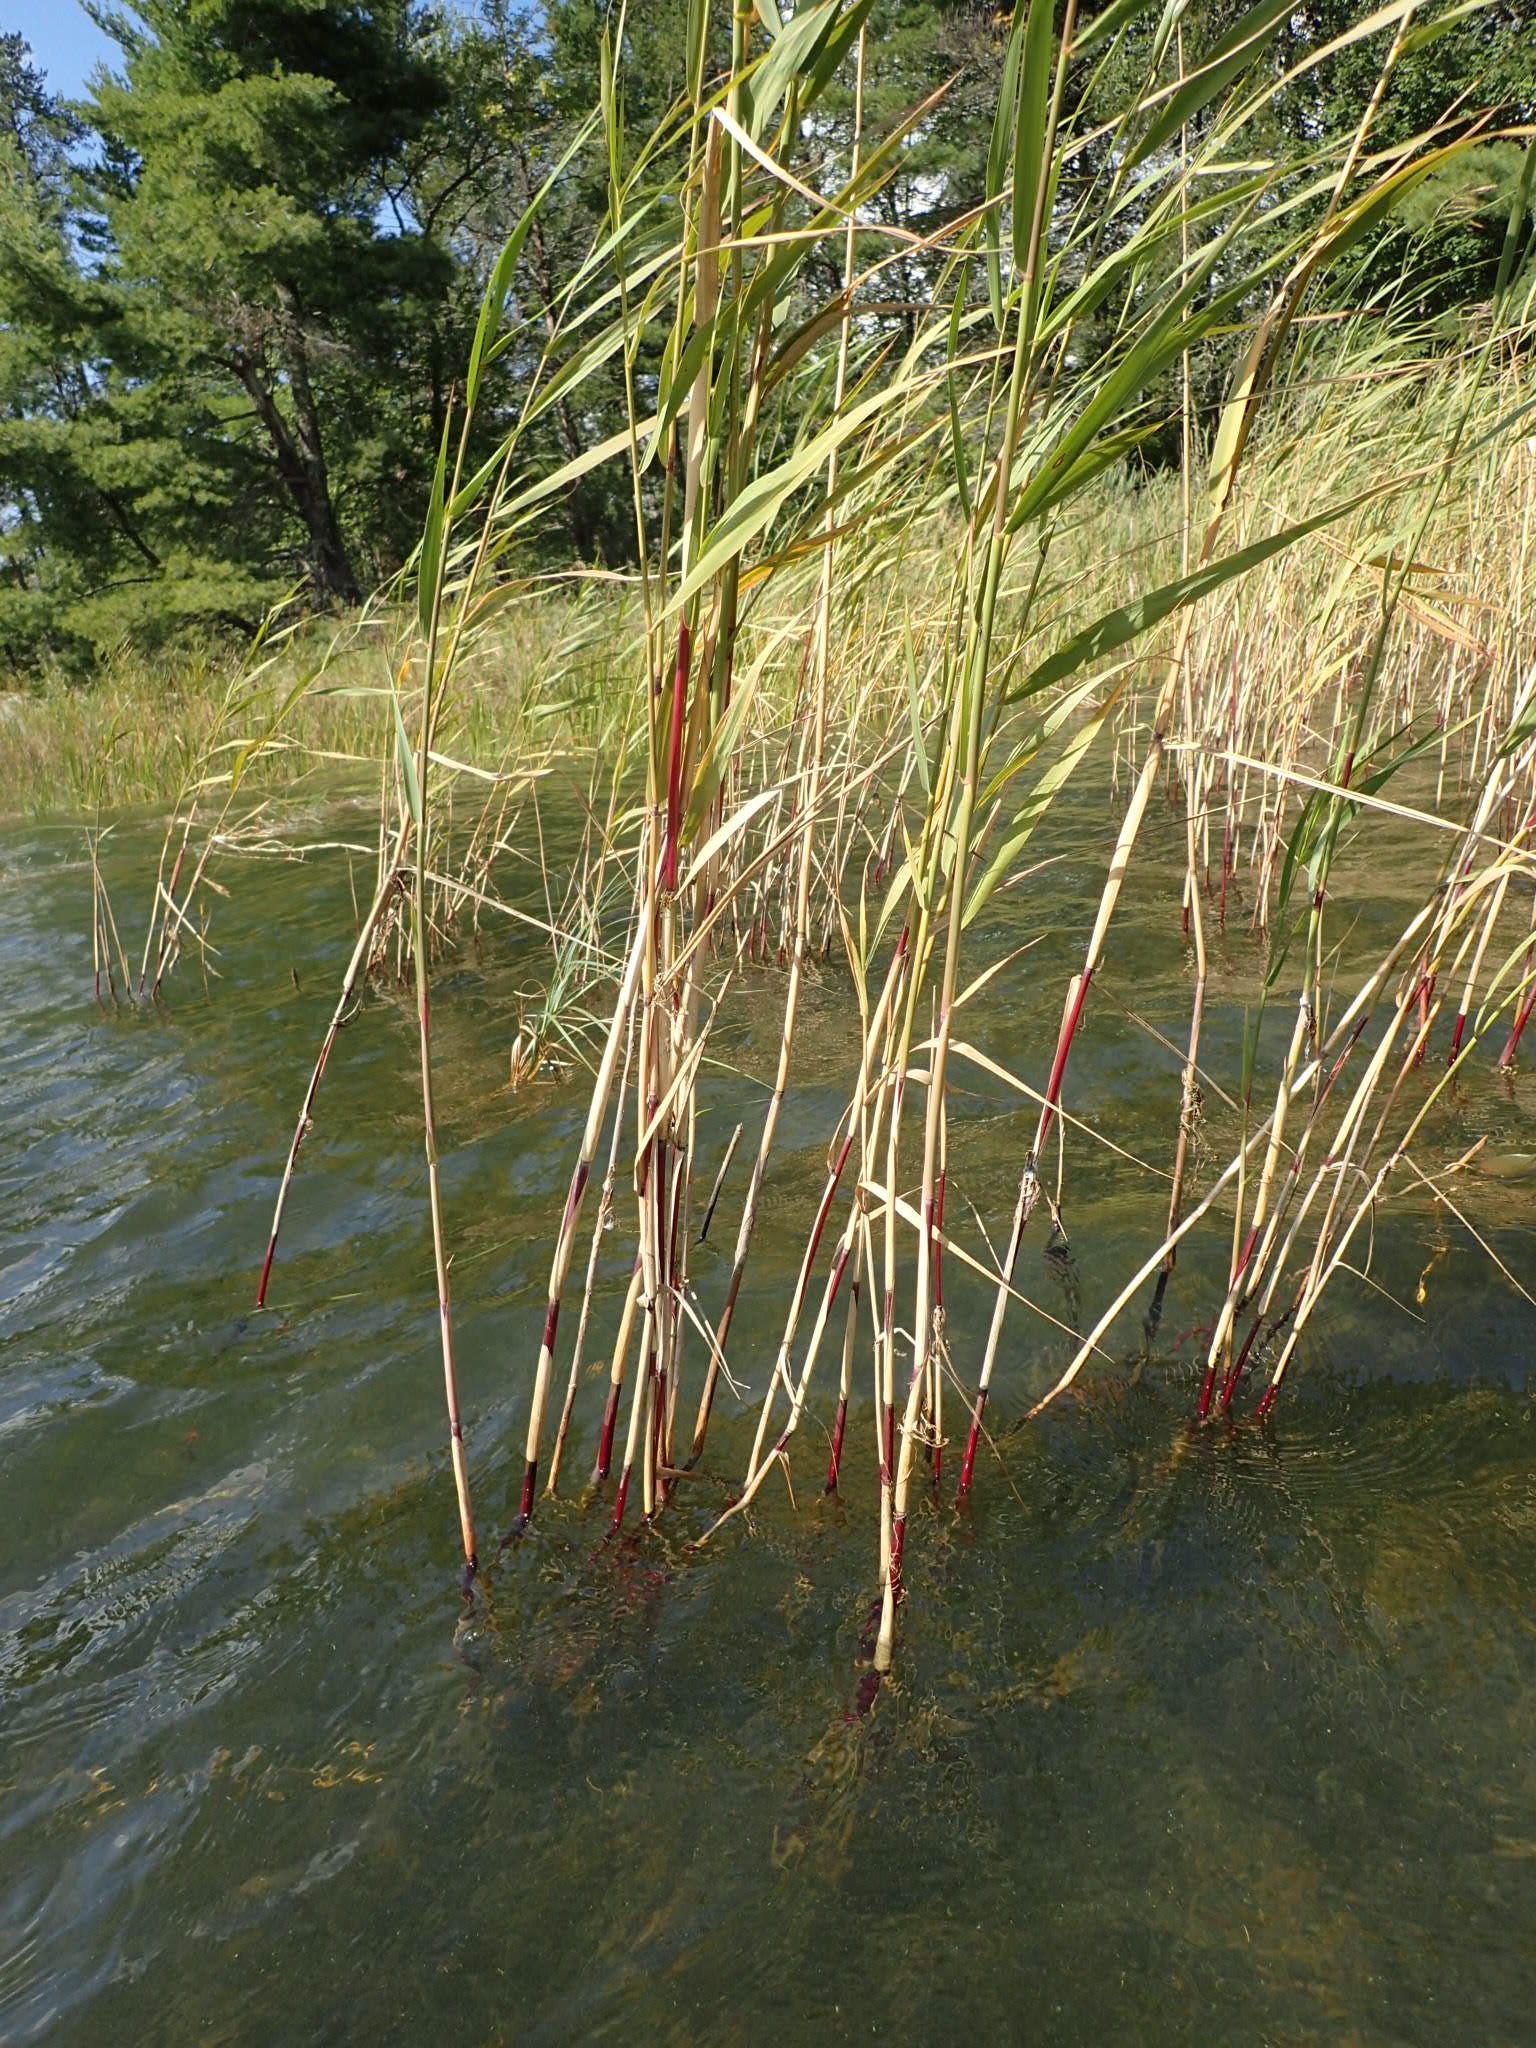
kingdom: Plantae
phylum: Tracheophyta
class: Liliopsida
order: Poales
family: Poaceae
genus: Phragmites
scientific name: Phragmites australis
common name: Common reed
